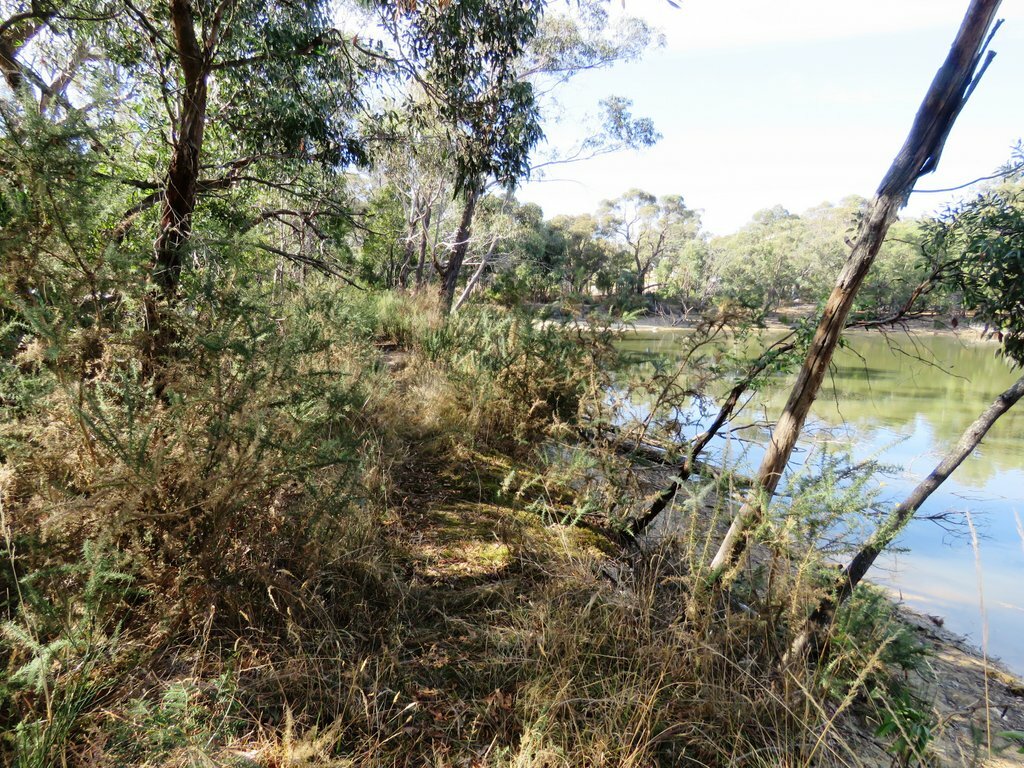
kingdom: Plantae
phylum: Tracheophyta
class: Magnoliopsida
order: Fabales
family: Fabaceae
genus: Ulex
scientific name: Ulex europaeus
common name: Common gorse
